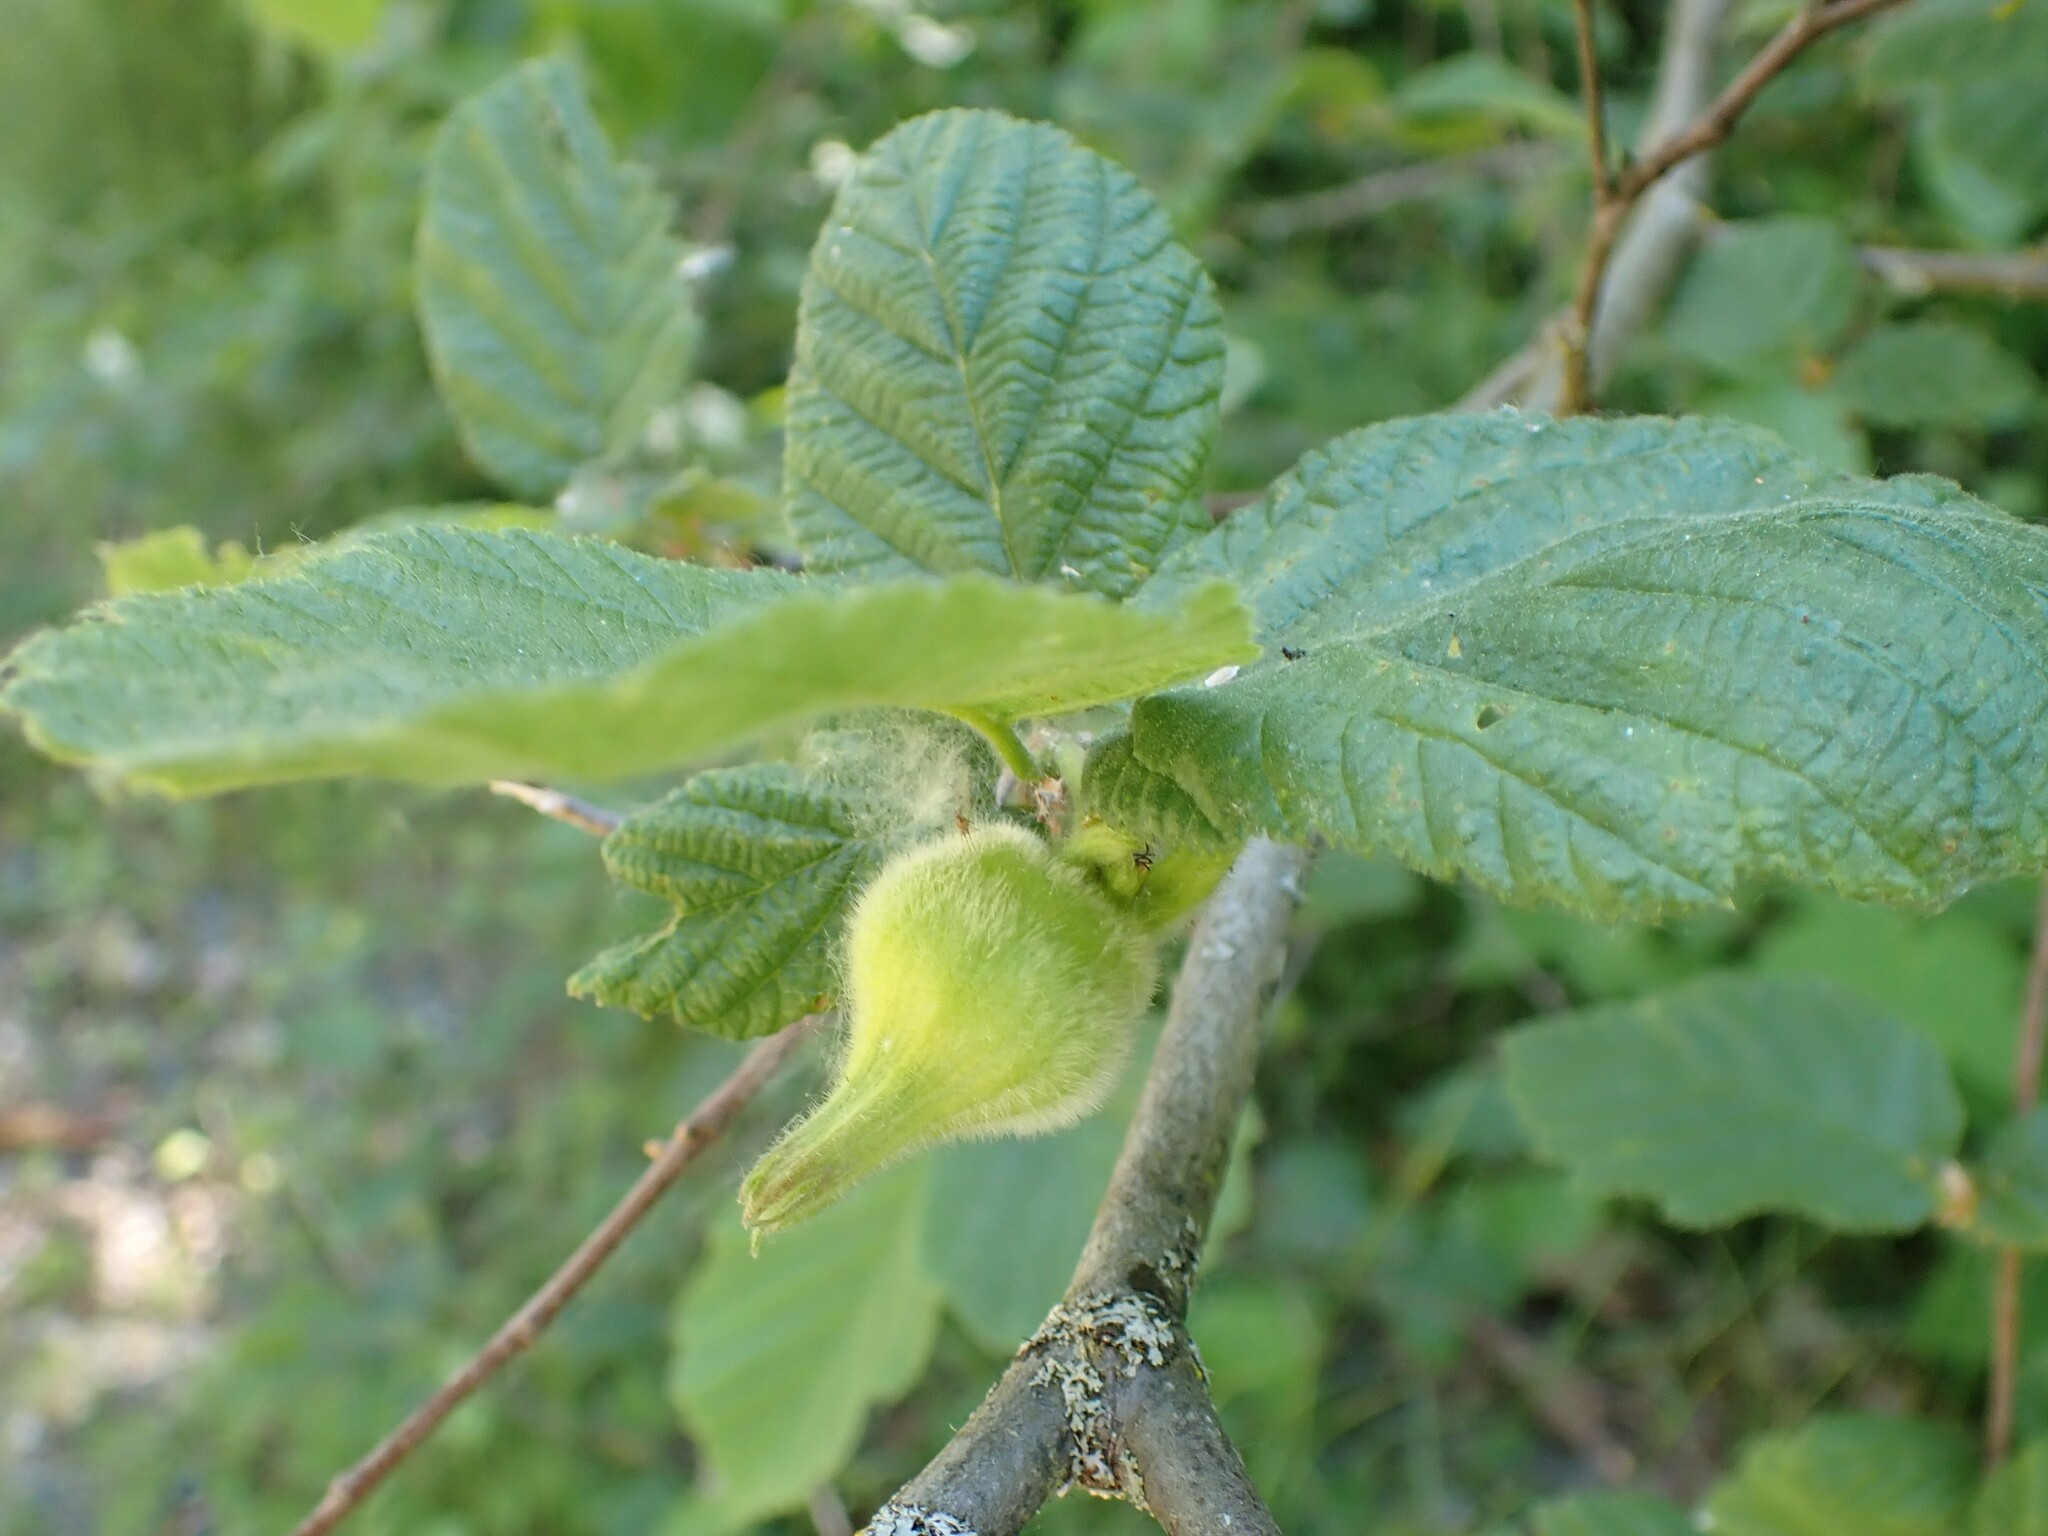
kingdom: Plantae
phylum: Tracheophyta
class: Magnoliopsida
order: Fagales
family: Betulaceae
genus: Corylus
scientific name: Corylus cornuta
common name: Beaked hazel
